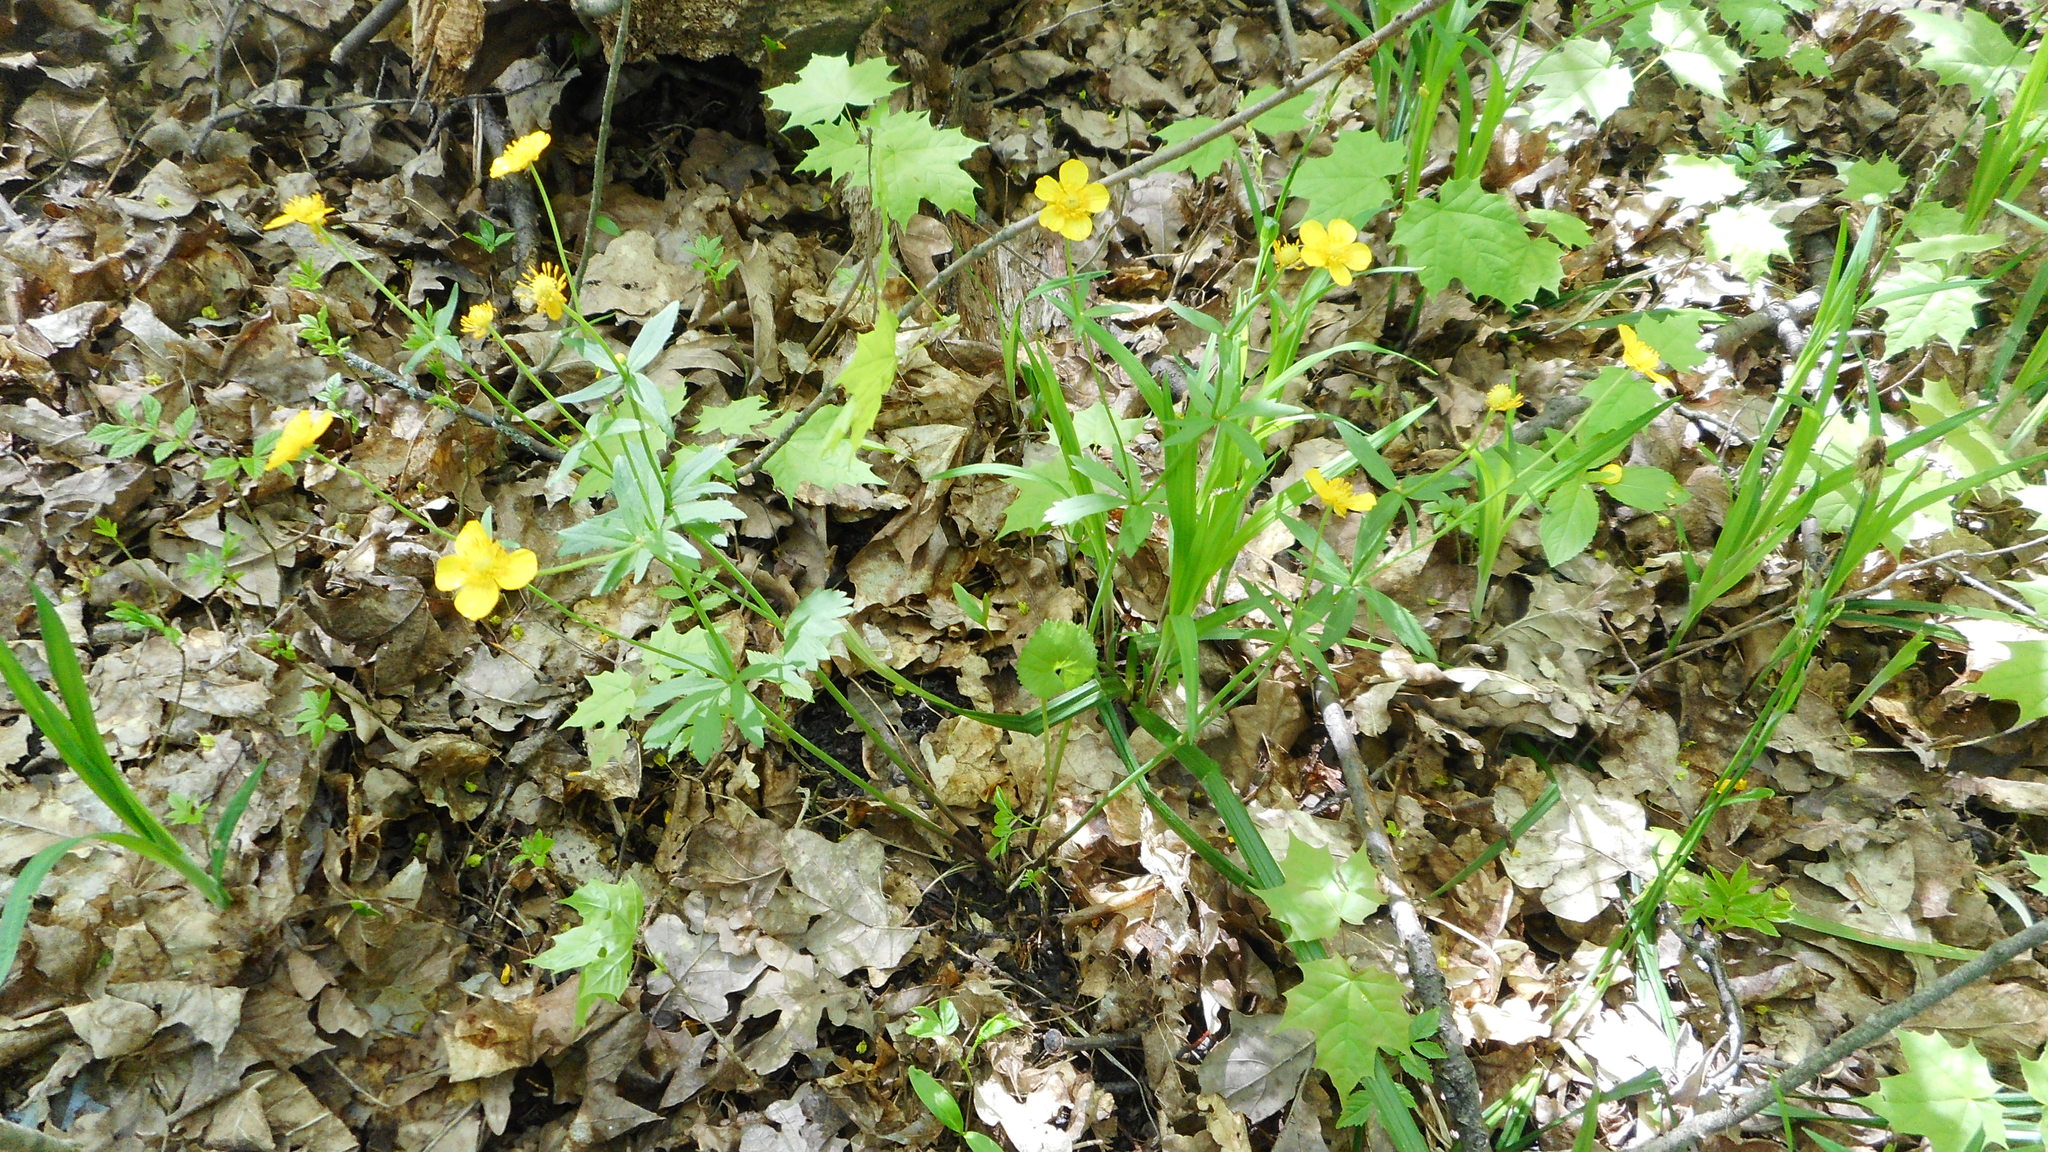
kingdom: Plantae
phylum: Tracheophyta
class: Magnoliopsida
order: Ranunculales
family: Ranunculaceae
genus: Ranunculus
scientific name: Ranunculus cassubicus
